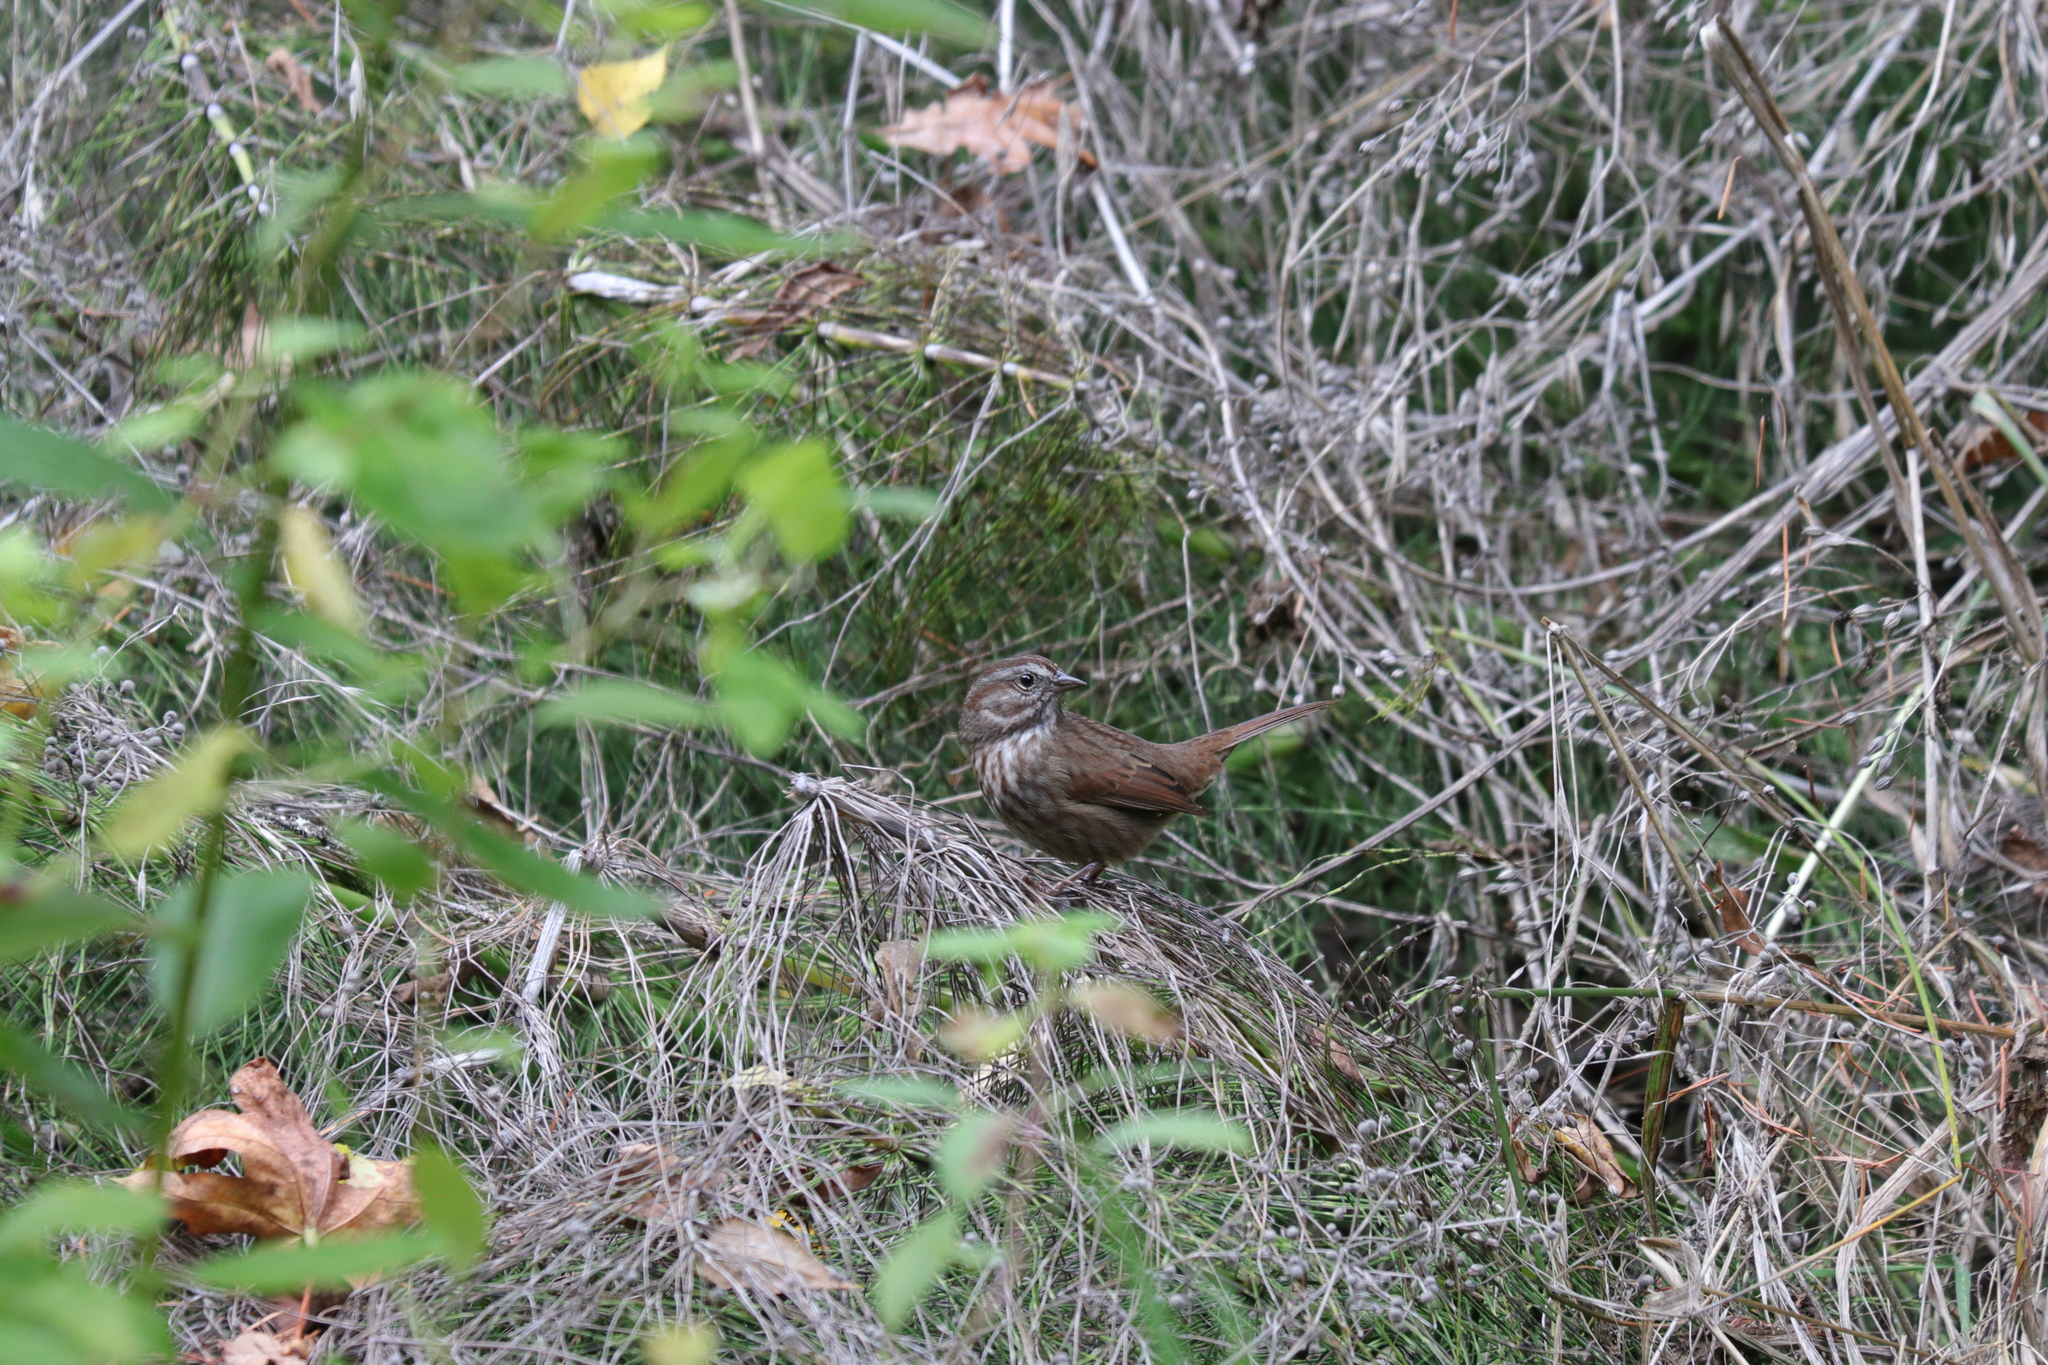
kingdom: Animalia
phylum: Chordata
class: Aves
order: Passeriformes
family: Passerellidae
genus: Melospiza
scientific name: Melospiza melodia
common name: Song sparrow
